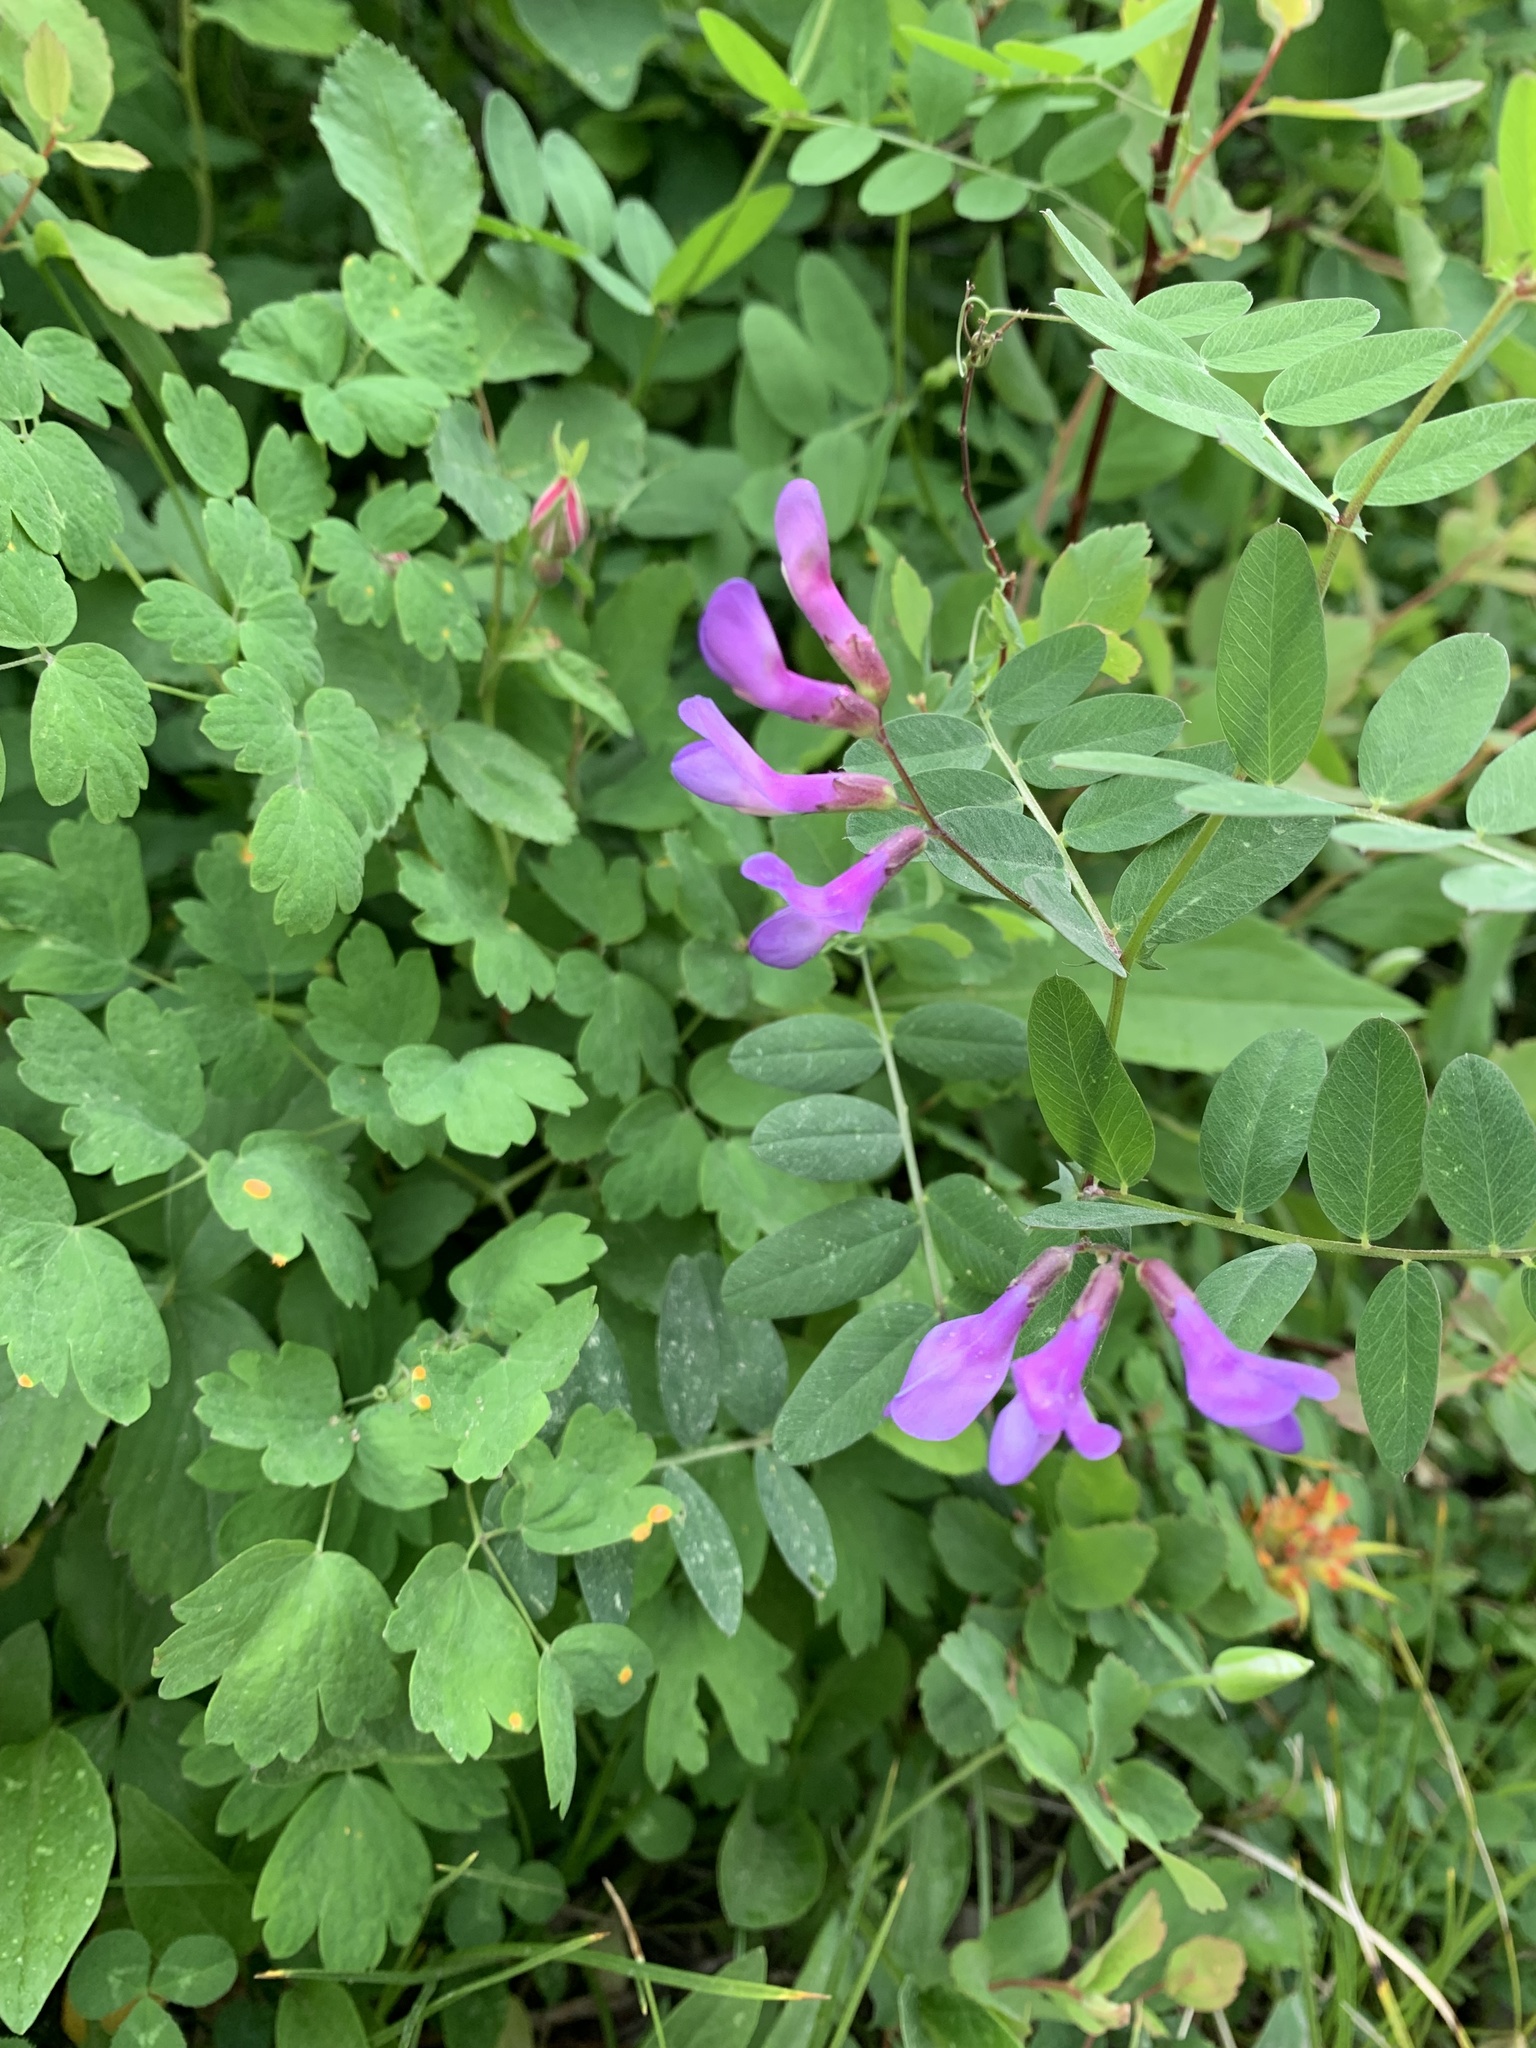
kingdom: Plantae
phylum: Tracheophyta
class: Magnoliopsida
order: Fabales
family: Fabaceae
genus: Vicia
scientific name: Vicia americana
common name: American vetch
